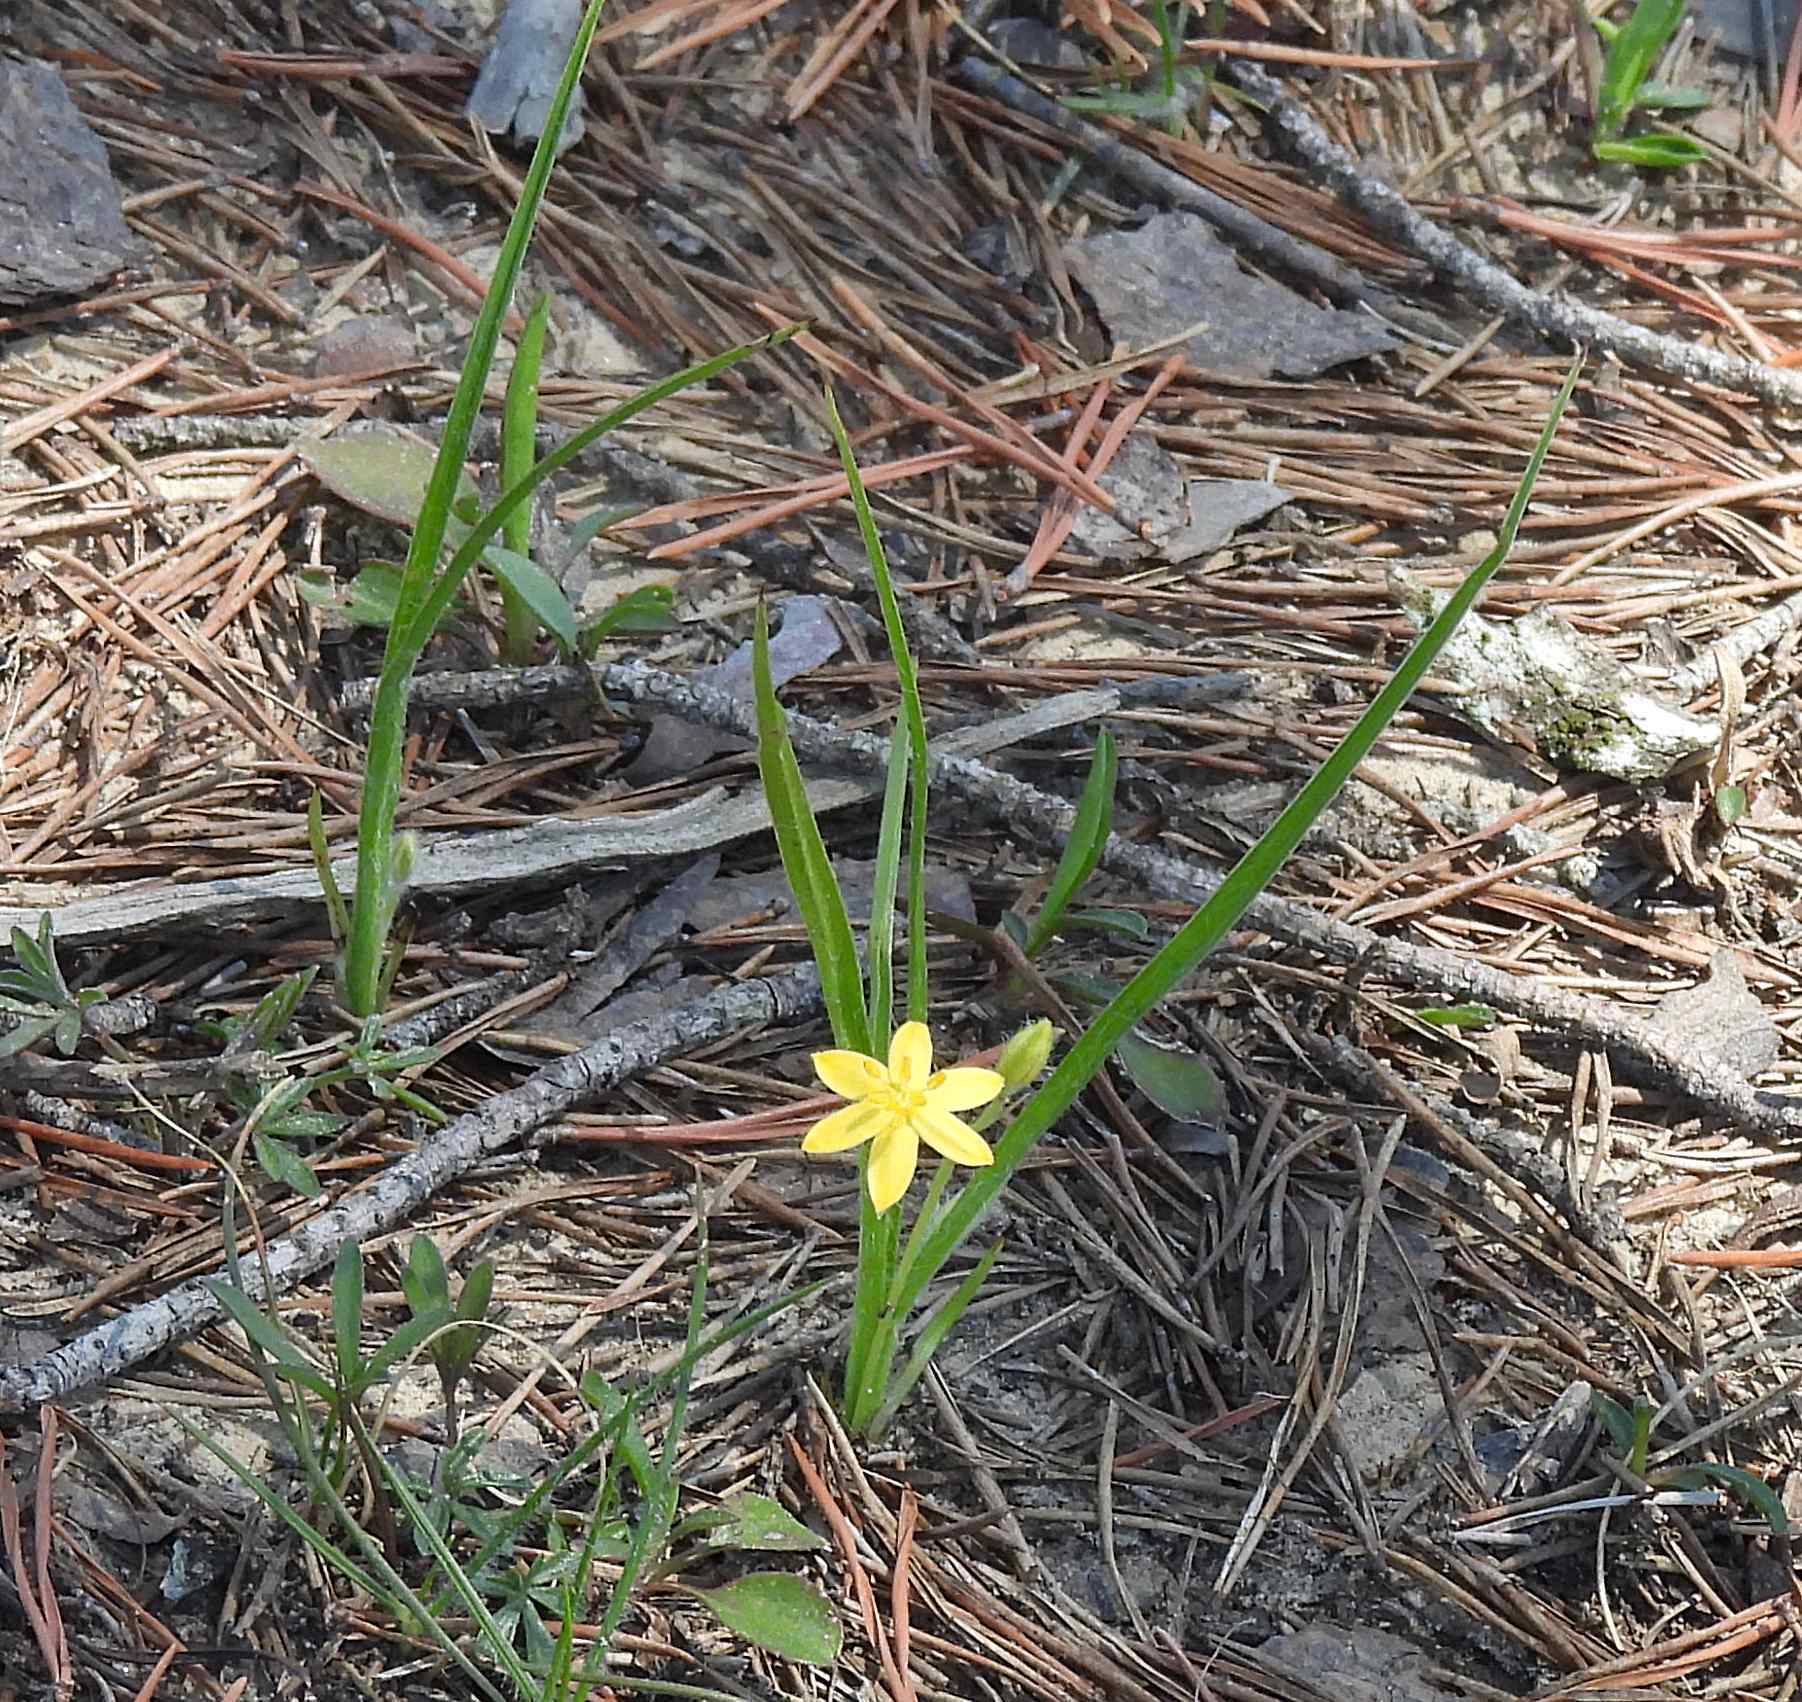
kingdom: Plantae
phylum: Tracheophyta
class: Liliopsida
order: Asparagales
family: Hypoxidaceae
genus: Hypoxis
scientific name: Hypoxis hirsuta
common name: Common goldstar
